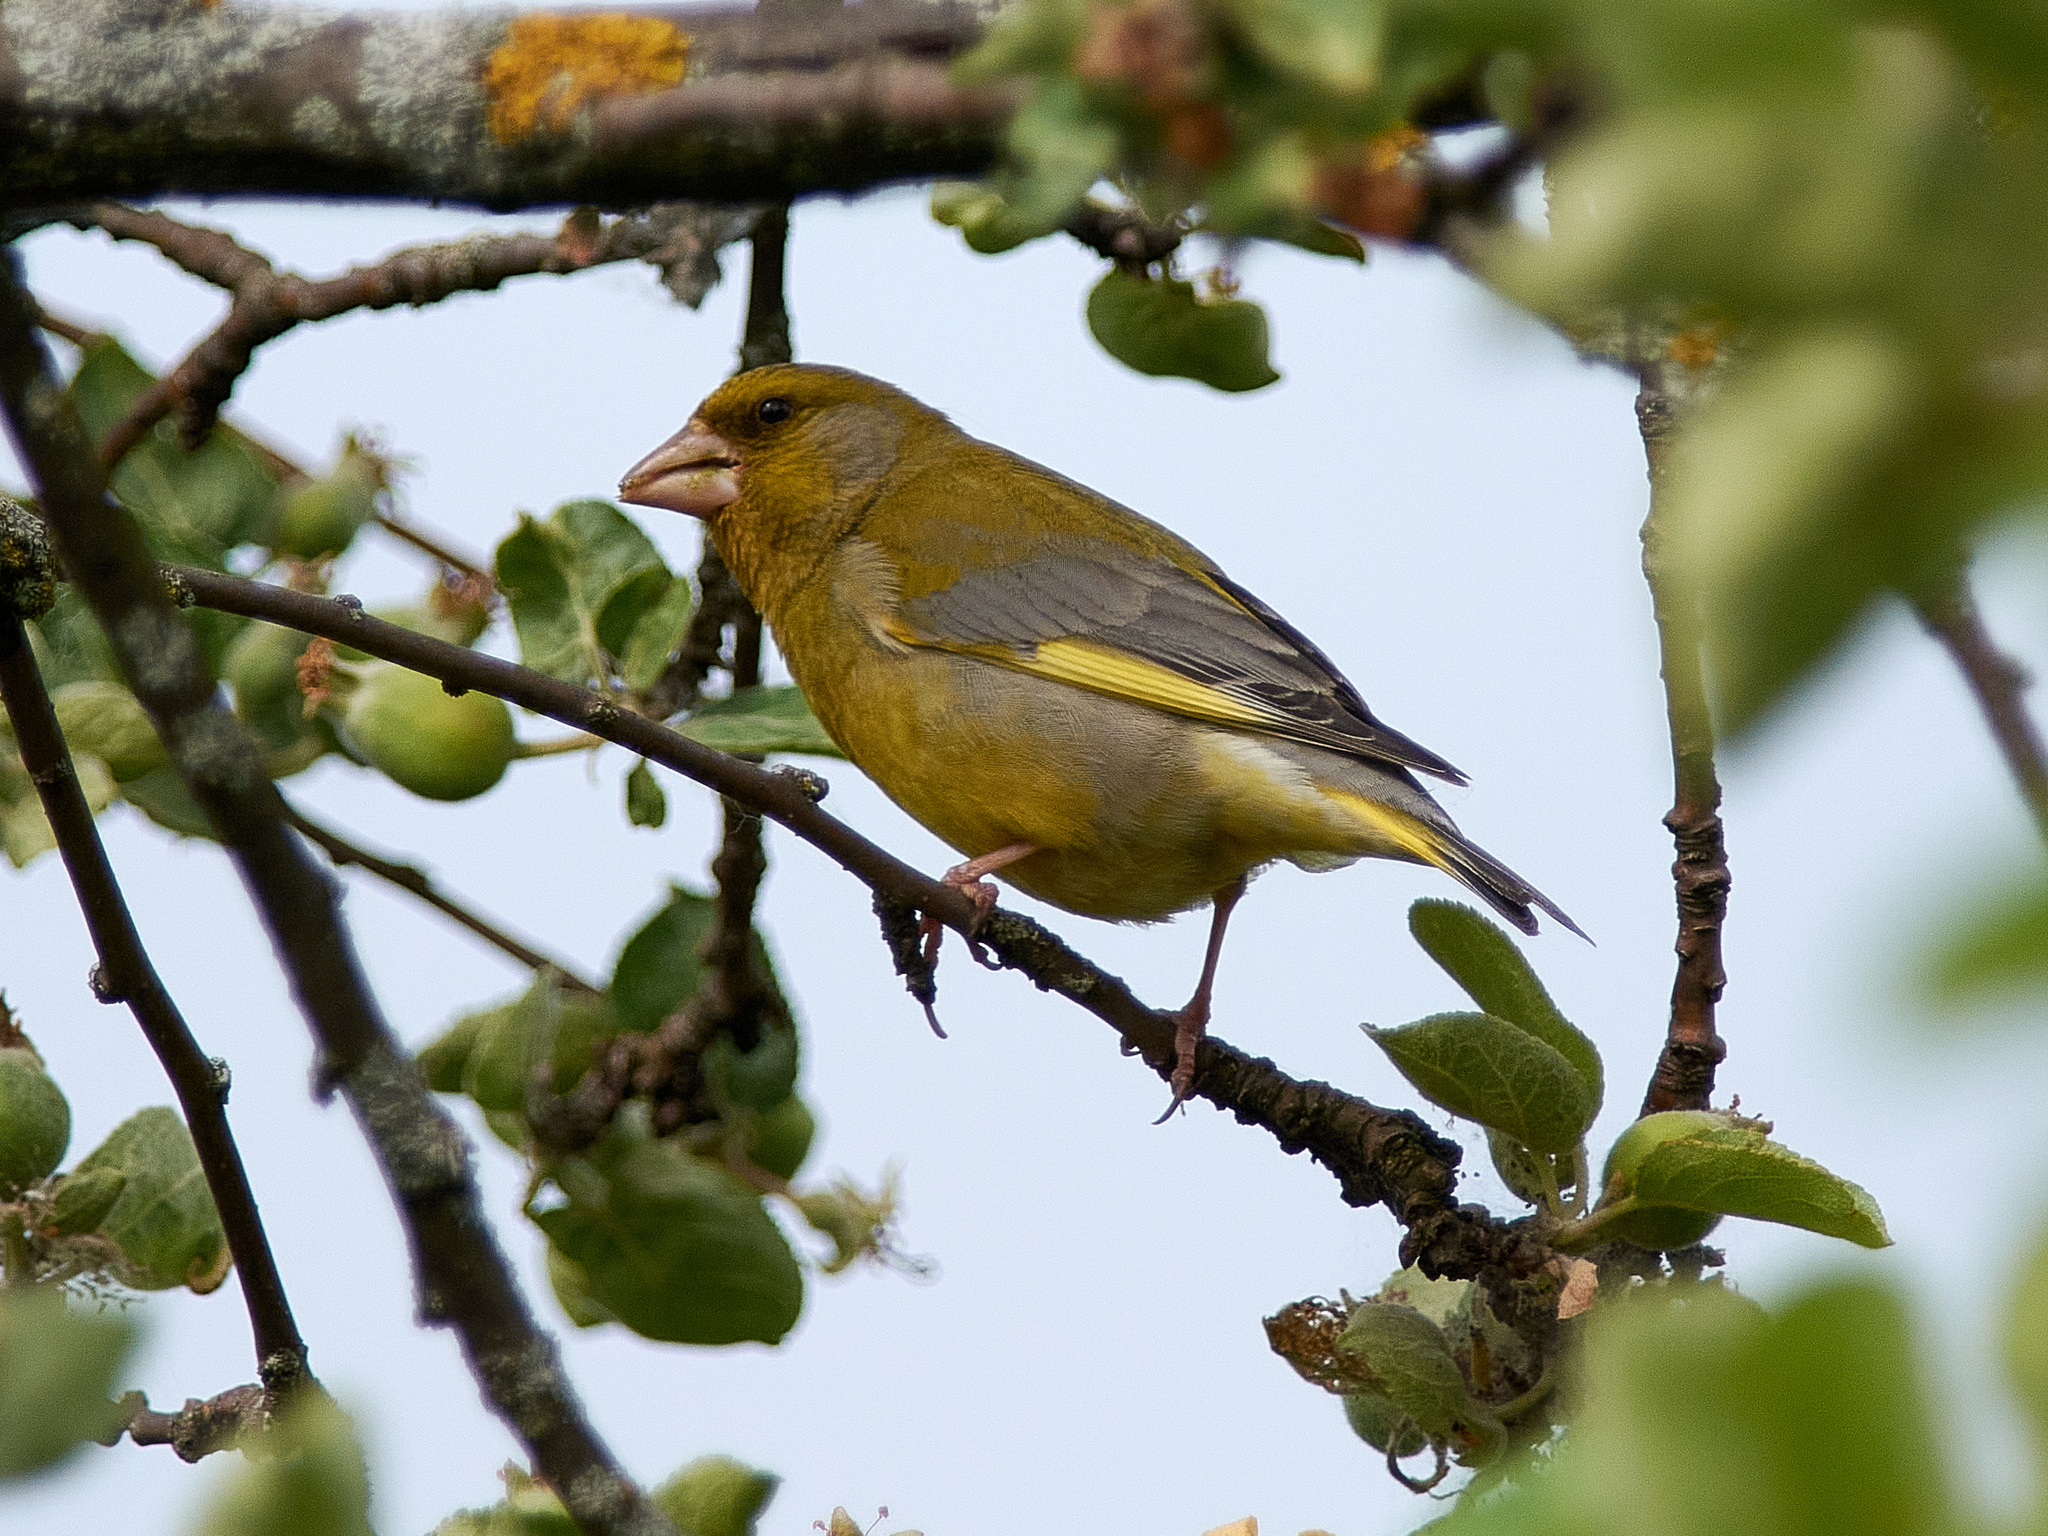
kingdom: Plantae
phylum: Tracheophyta
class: Liliopsida
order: Poales
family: Poaceae
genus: Chloris
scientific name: Chloris chloris
